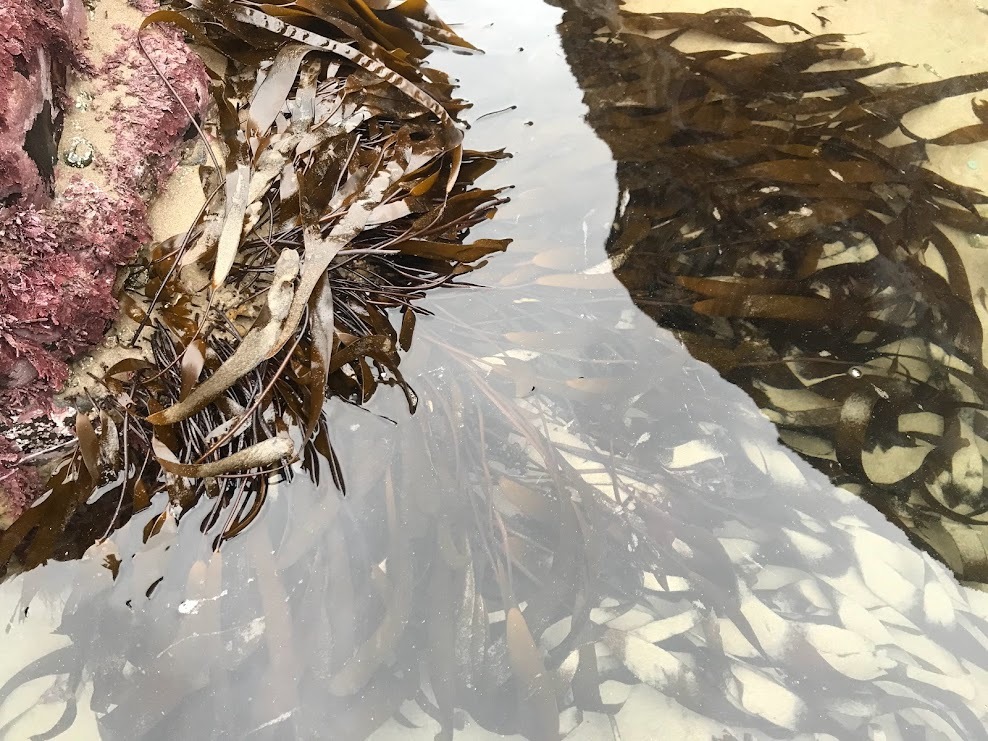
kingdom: Chromista
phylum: Ochrophyta
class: Phaeophyceae
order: Laminariales
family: Laminariaceae
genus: Laminaria
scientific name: Laminaria sinclairii
